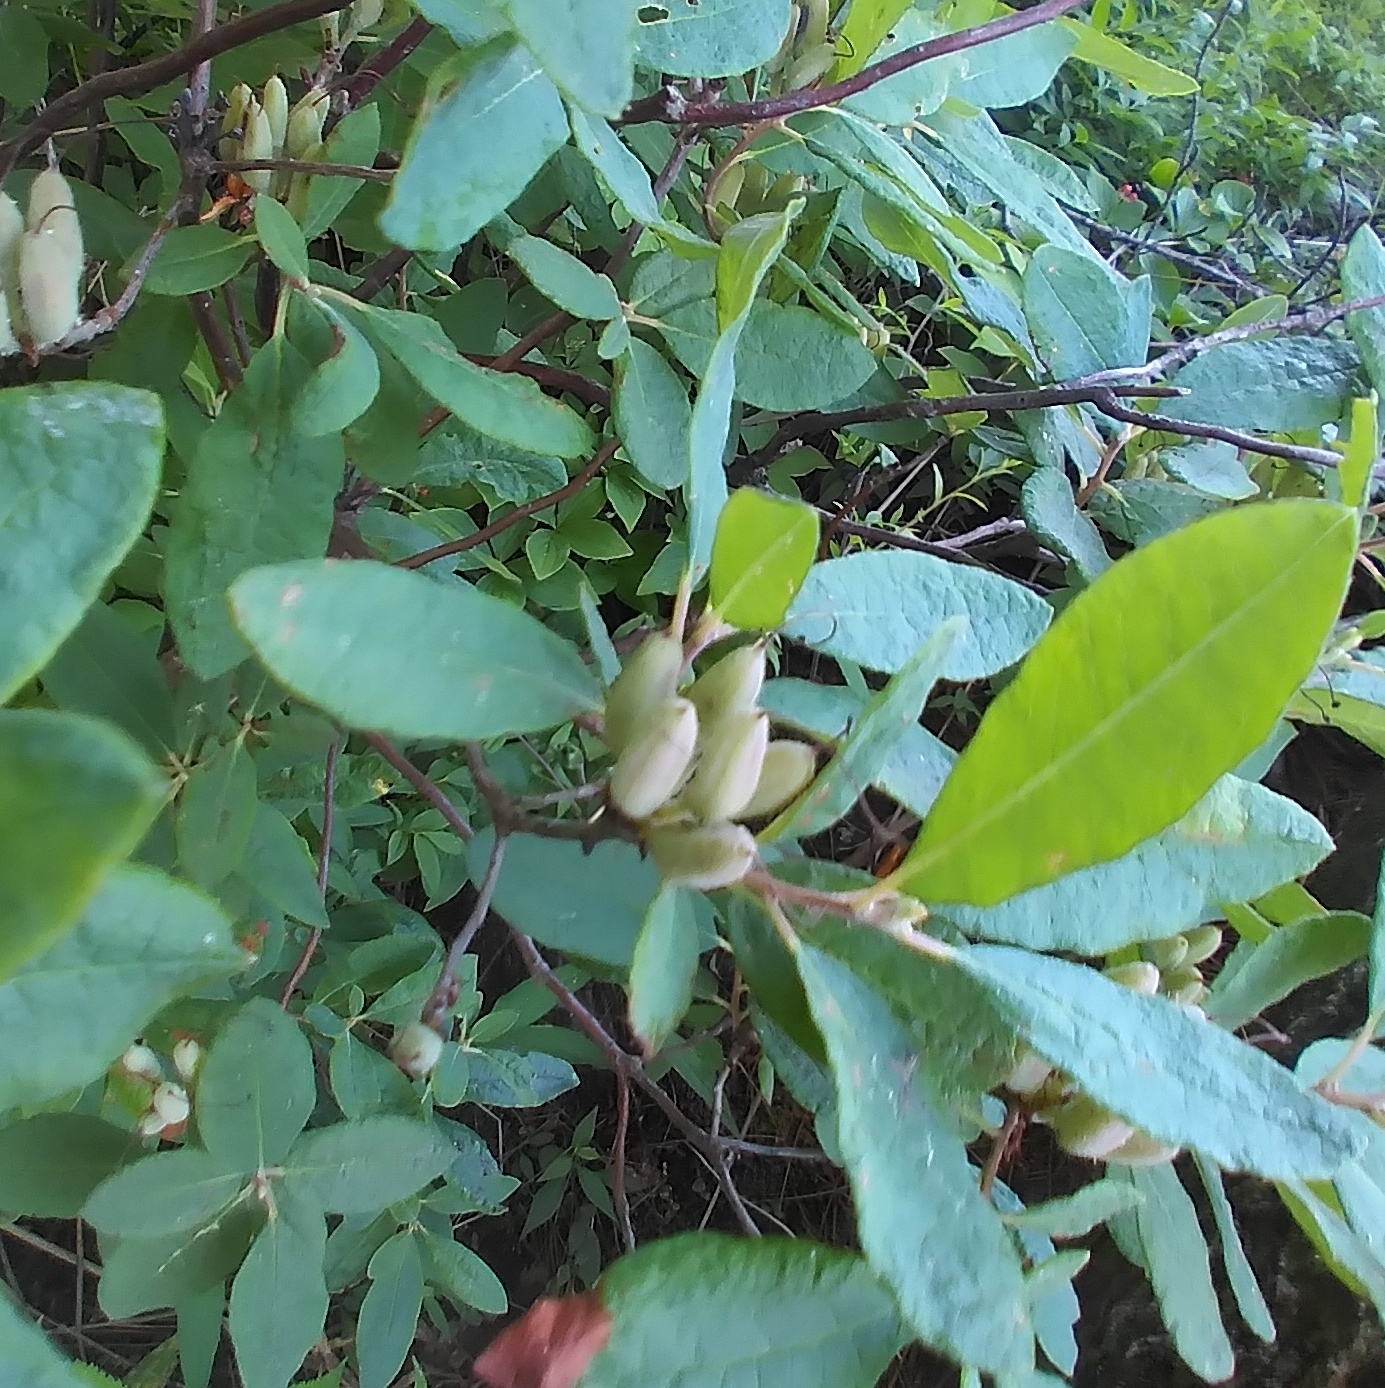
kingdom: Plantae
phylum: Tracheophyta
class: Magnoliopsida
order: Ericales
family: Ericaceae
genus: Rhododendron
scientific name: Rhododendron canadense
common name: Rhodora
